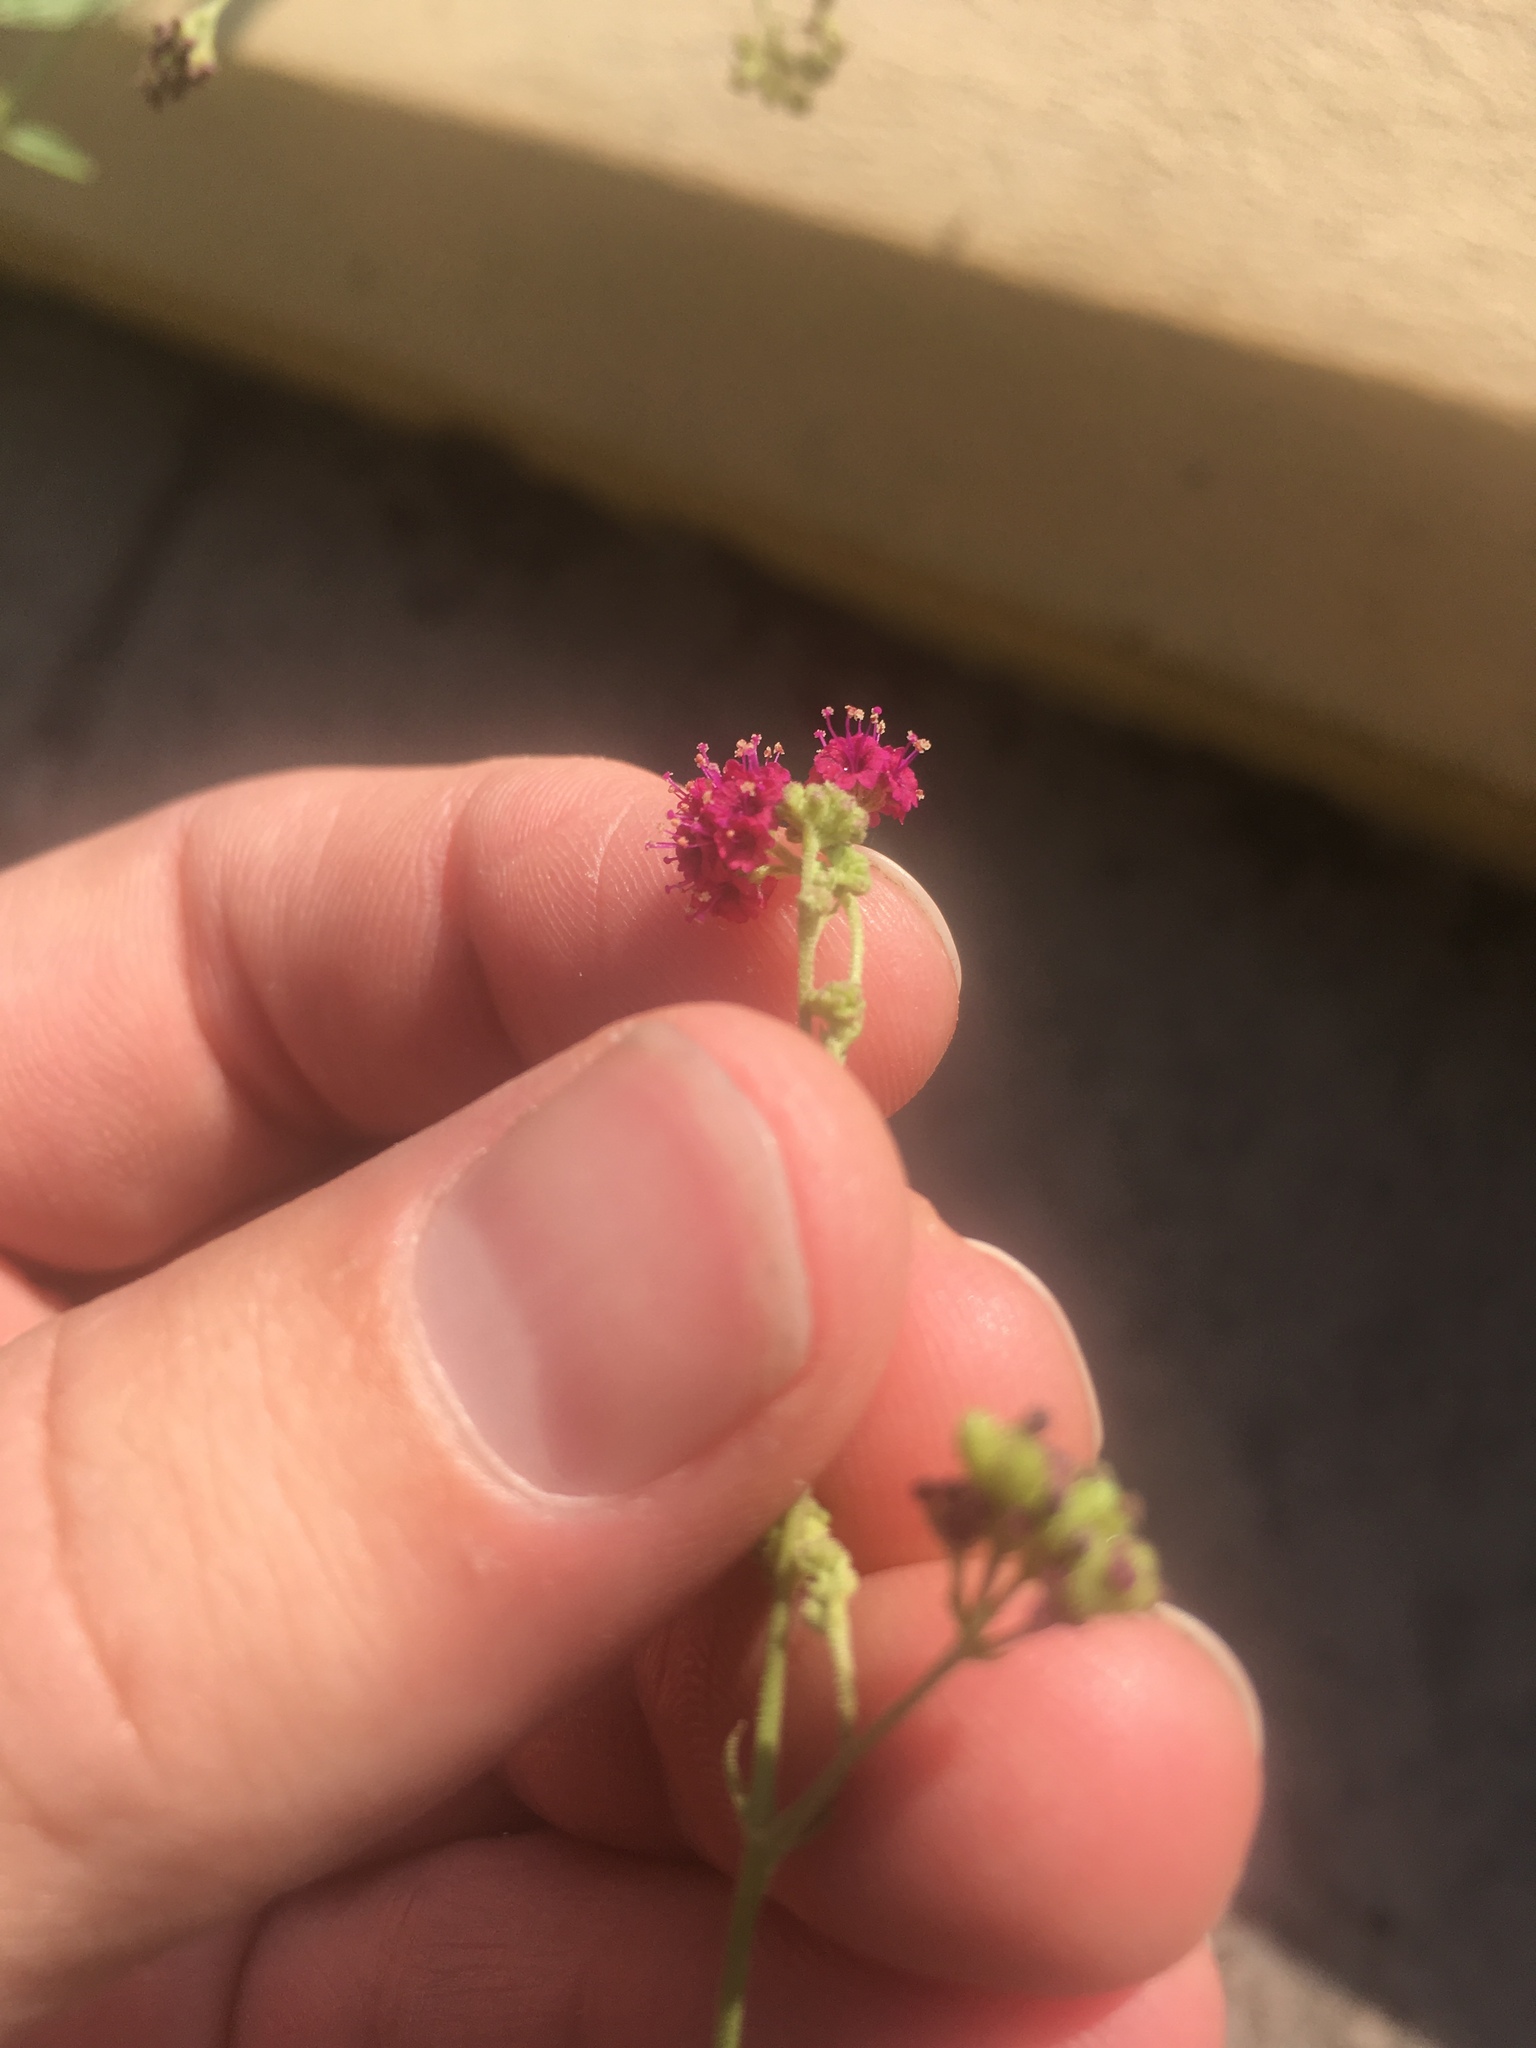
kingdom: Plantae
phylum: Tracheophyta
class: Magnoliopsida
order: Caryophyllales
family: Nyctaginaceae
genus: Boerhavia
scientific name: Boerhavia coccinea
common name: Scarlet spiderling
